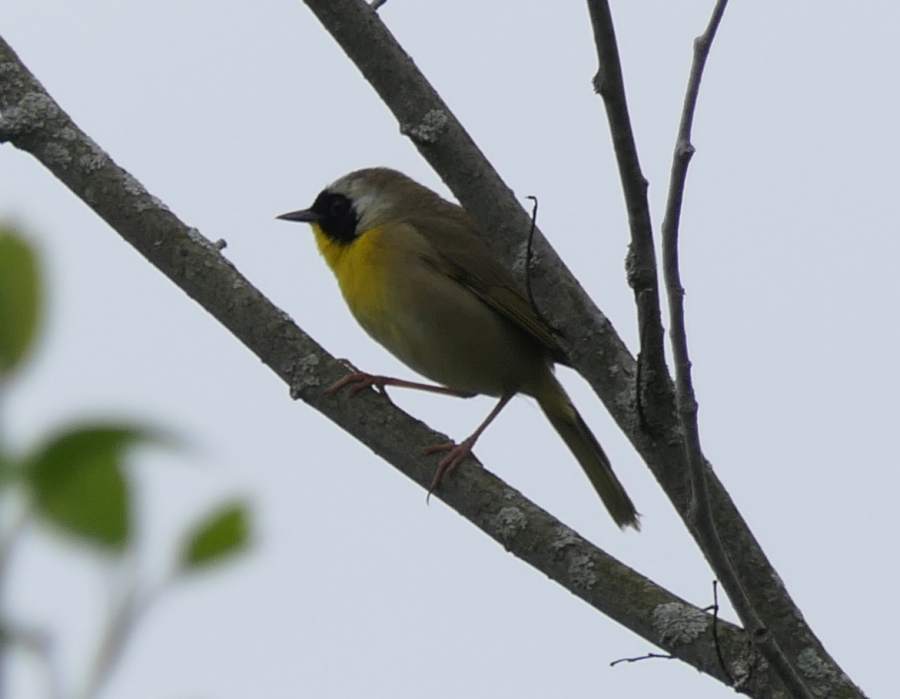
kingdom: Animalia
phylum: Chordata
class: Aves
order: Passeriformes
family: Parulidae
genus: Geothlypis
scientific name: Geothlypis trichas
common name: Common yellowthroat
